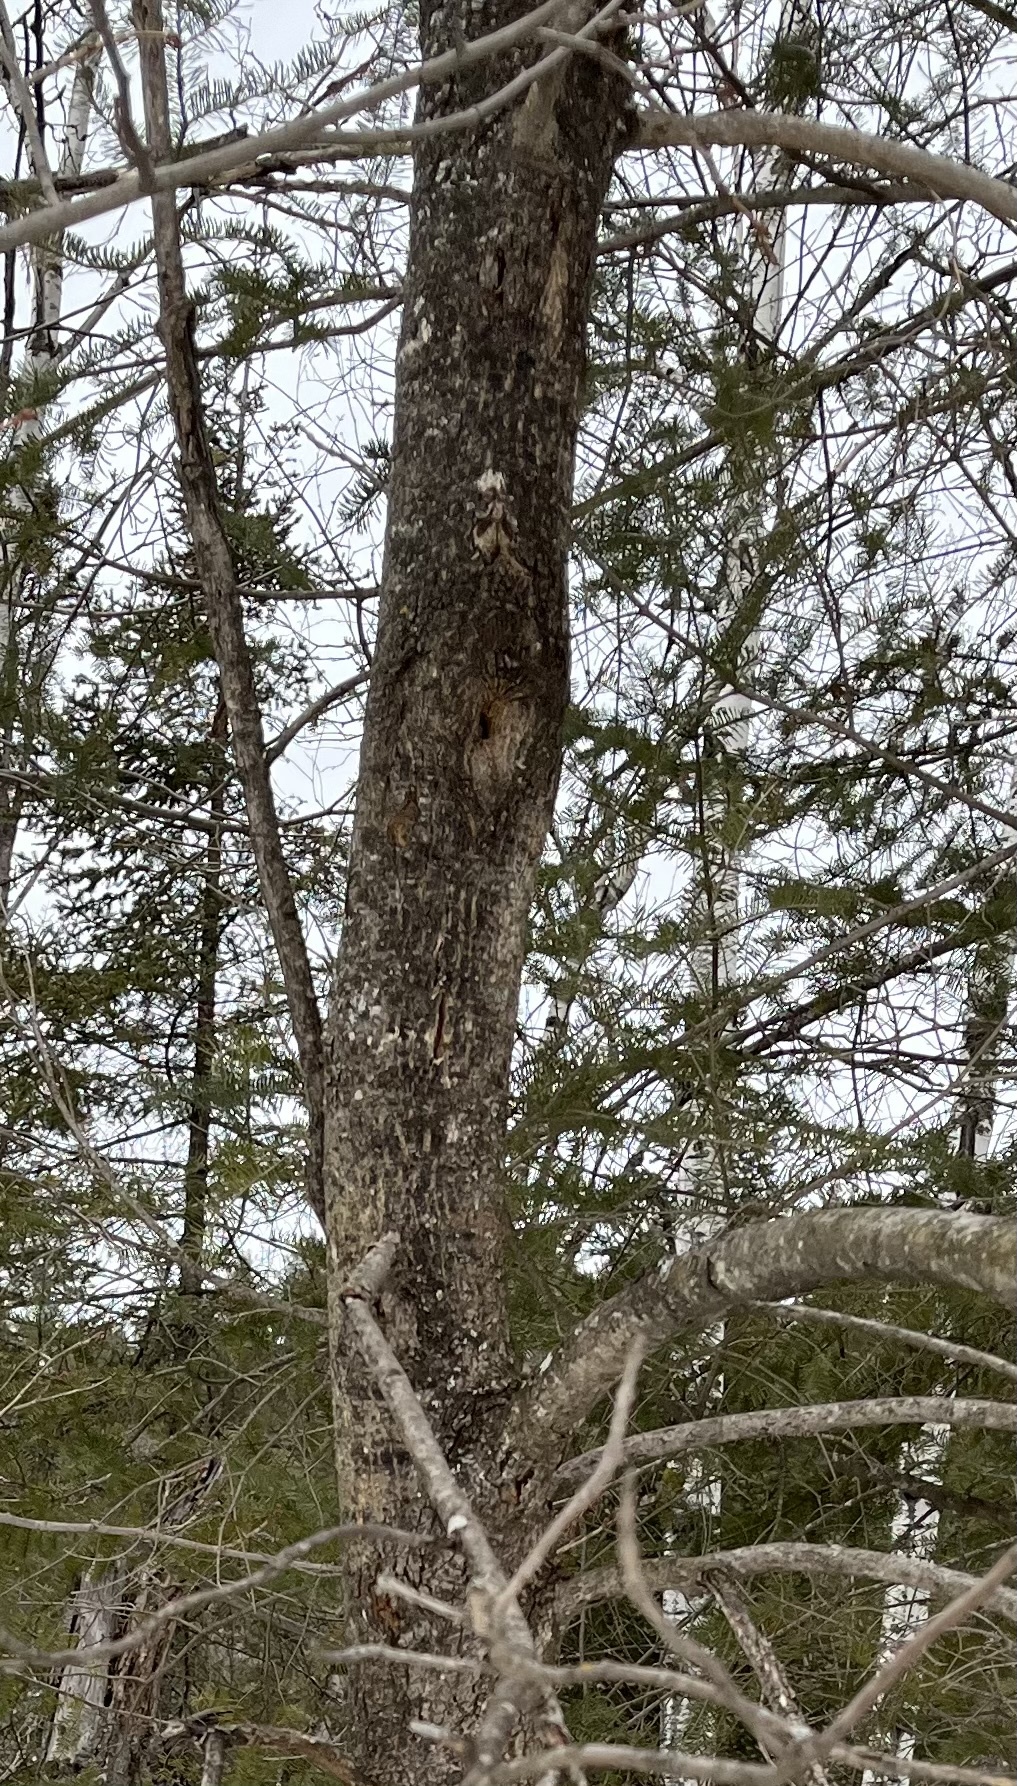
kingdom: Plantae
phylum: Tracheophyta
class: Magnoliopsida
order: Lamiales
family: Oleaceae
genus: Fraxinus
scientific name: Fraxinus americana
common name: White ash
